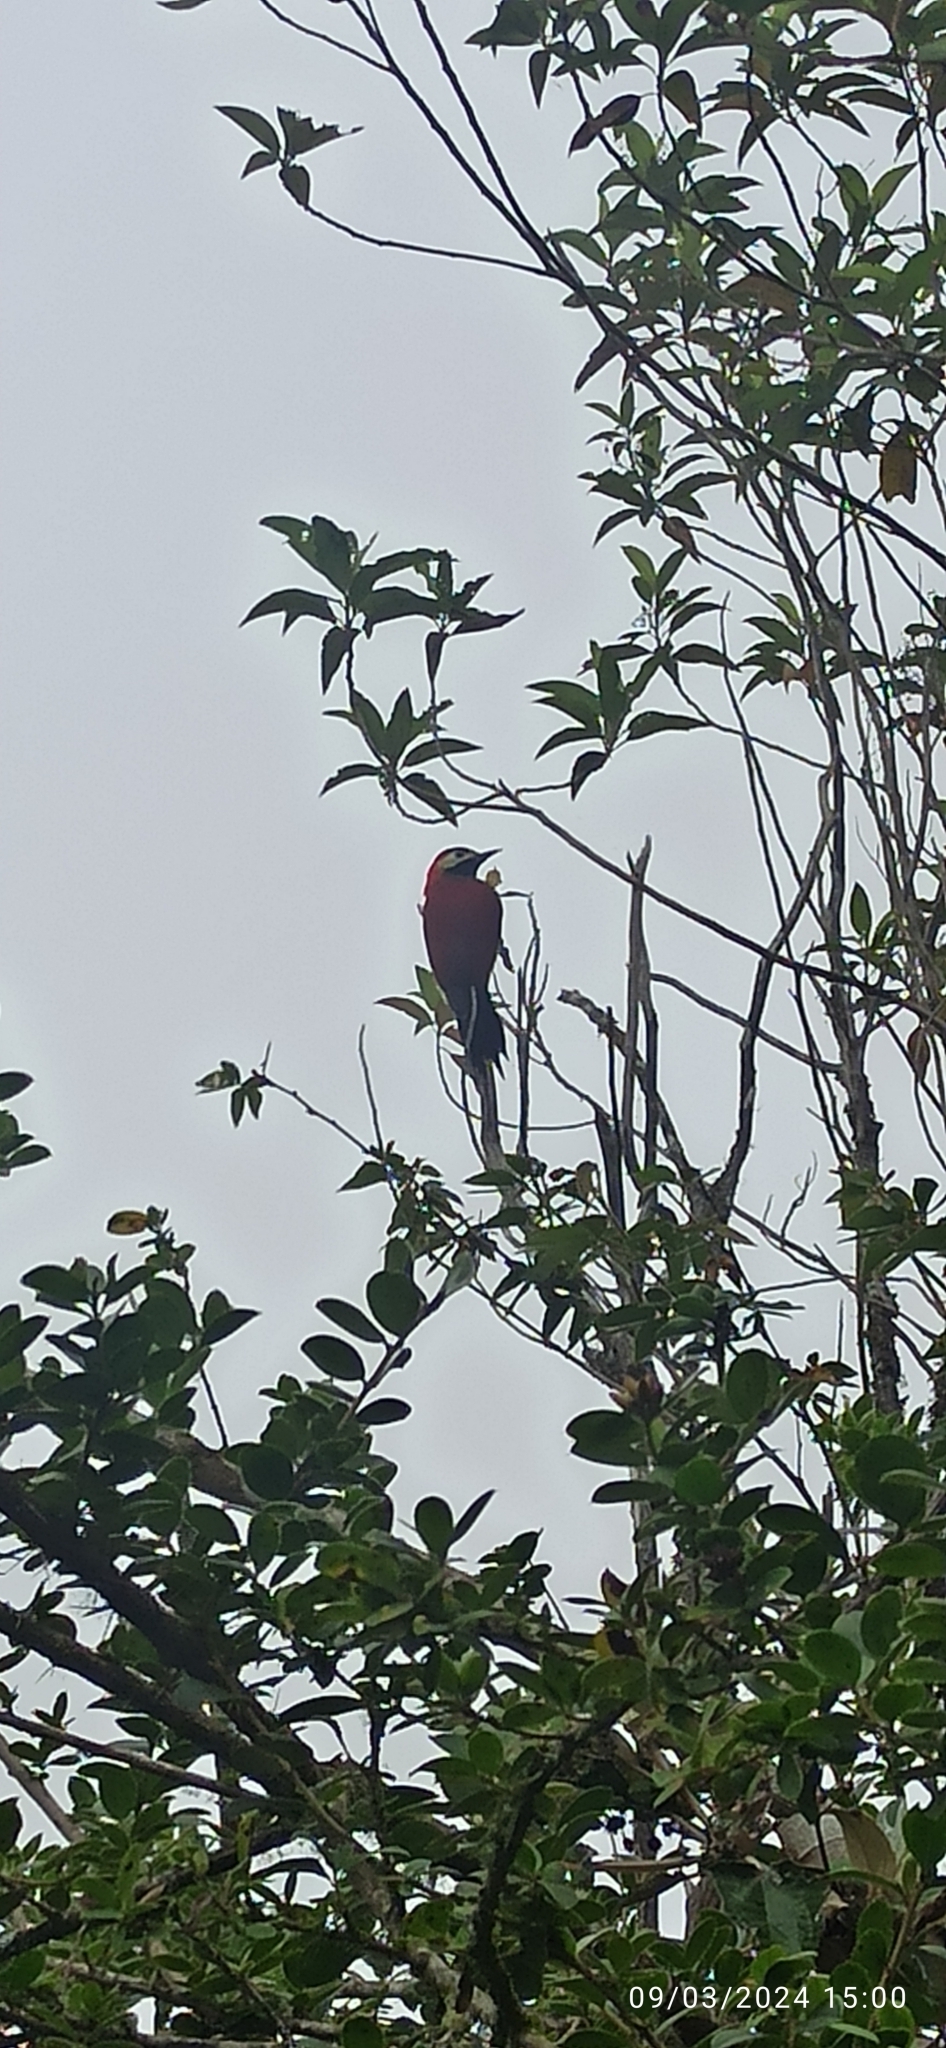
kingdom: Animalia
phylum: Chordata
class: Aves
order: Piciformes
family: Picidae
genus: Colaptes
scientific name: Colaptes rivolii
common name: Crimson-mantled woodpecker
